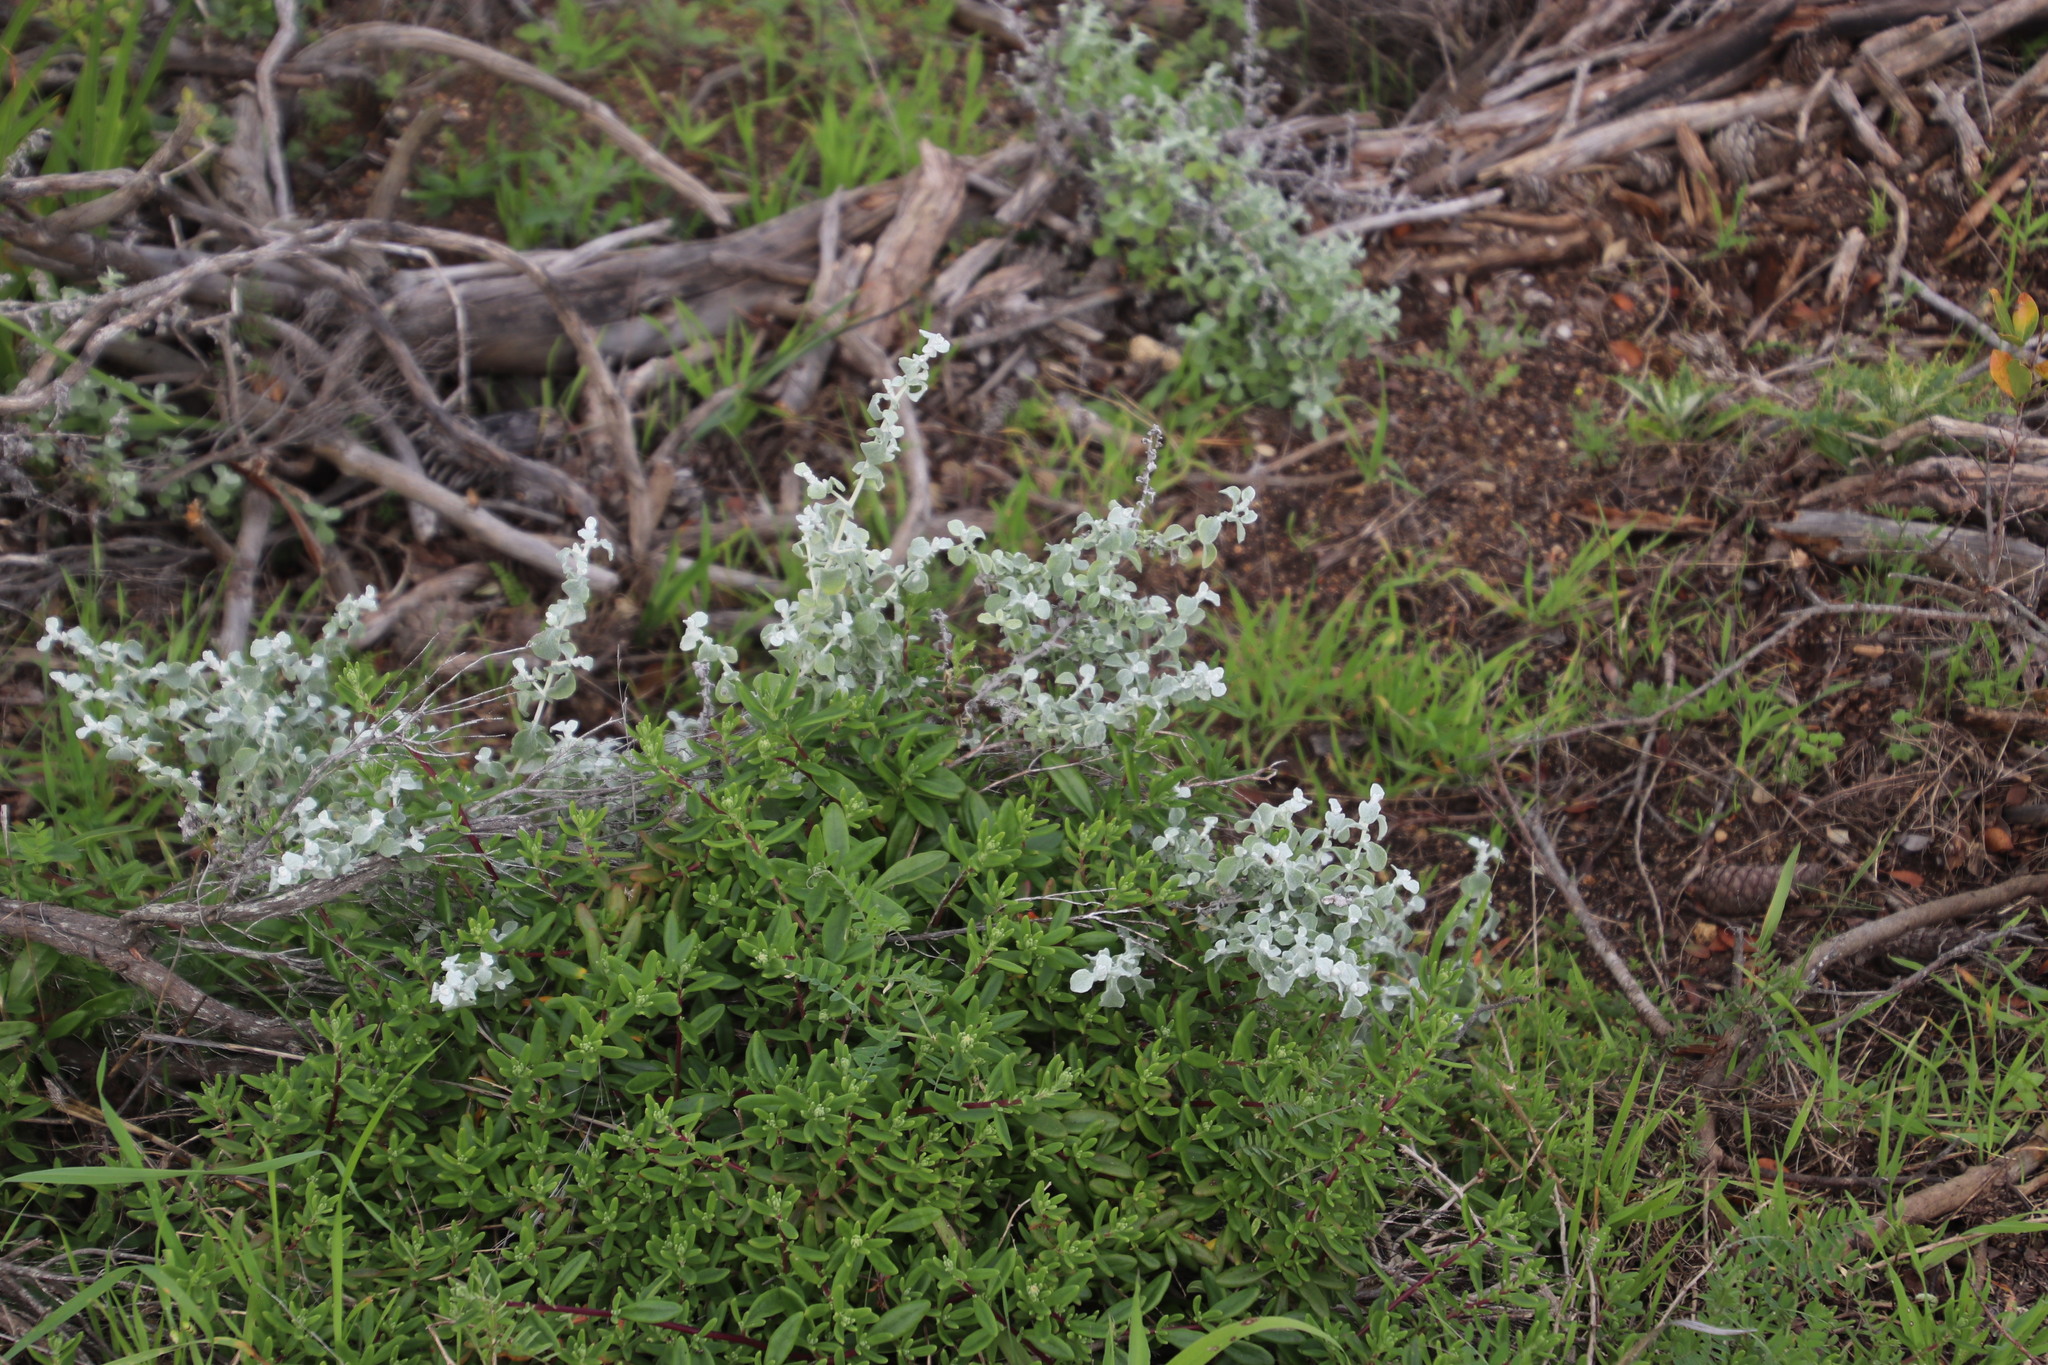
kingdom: Plantae
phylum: Tracheophyta
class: Magnoliopsida
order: Asterales
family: Asteraceae
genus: Helichrysum
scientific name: Helichrysum patulum
